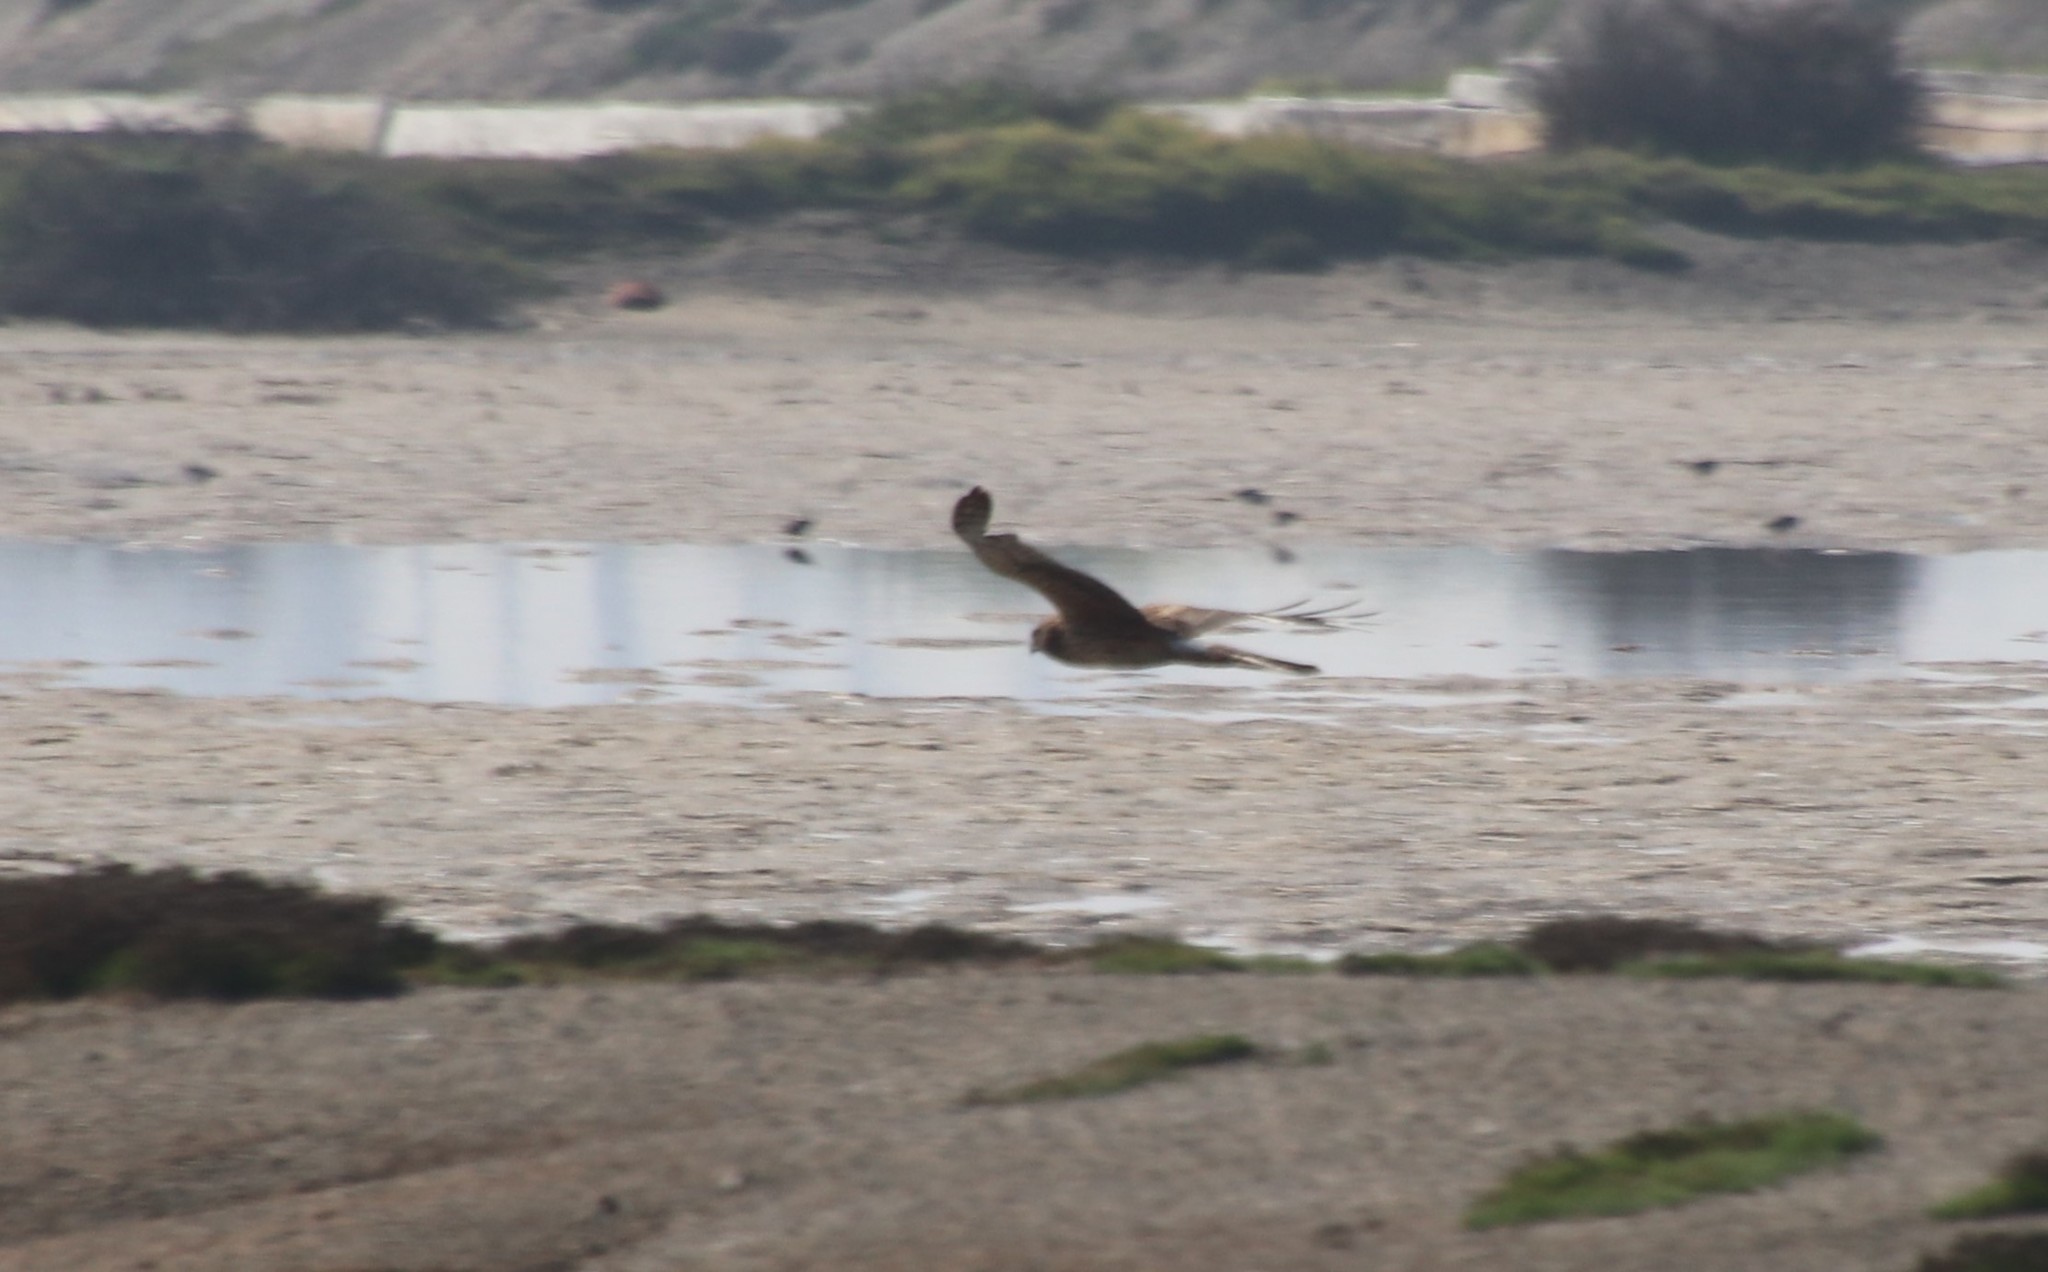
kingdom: Animalia
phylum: Chordata
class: Aves
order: Accipitriformes
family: Accipitridae
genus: Circus
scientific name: Circus cyaneus
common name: Hen harrier
